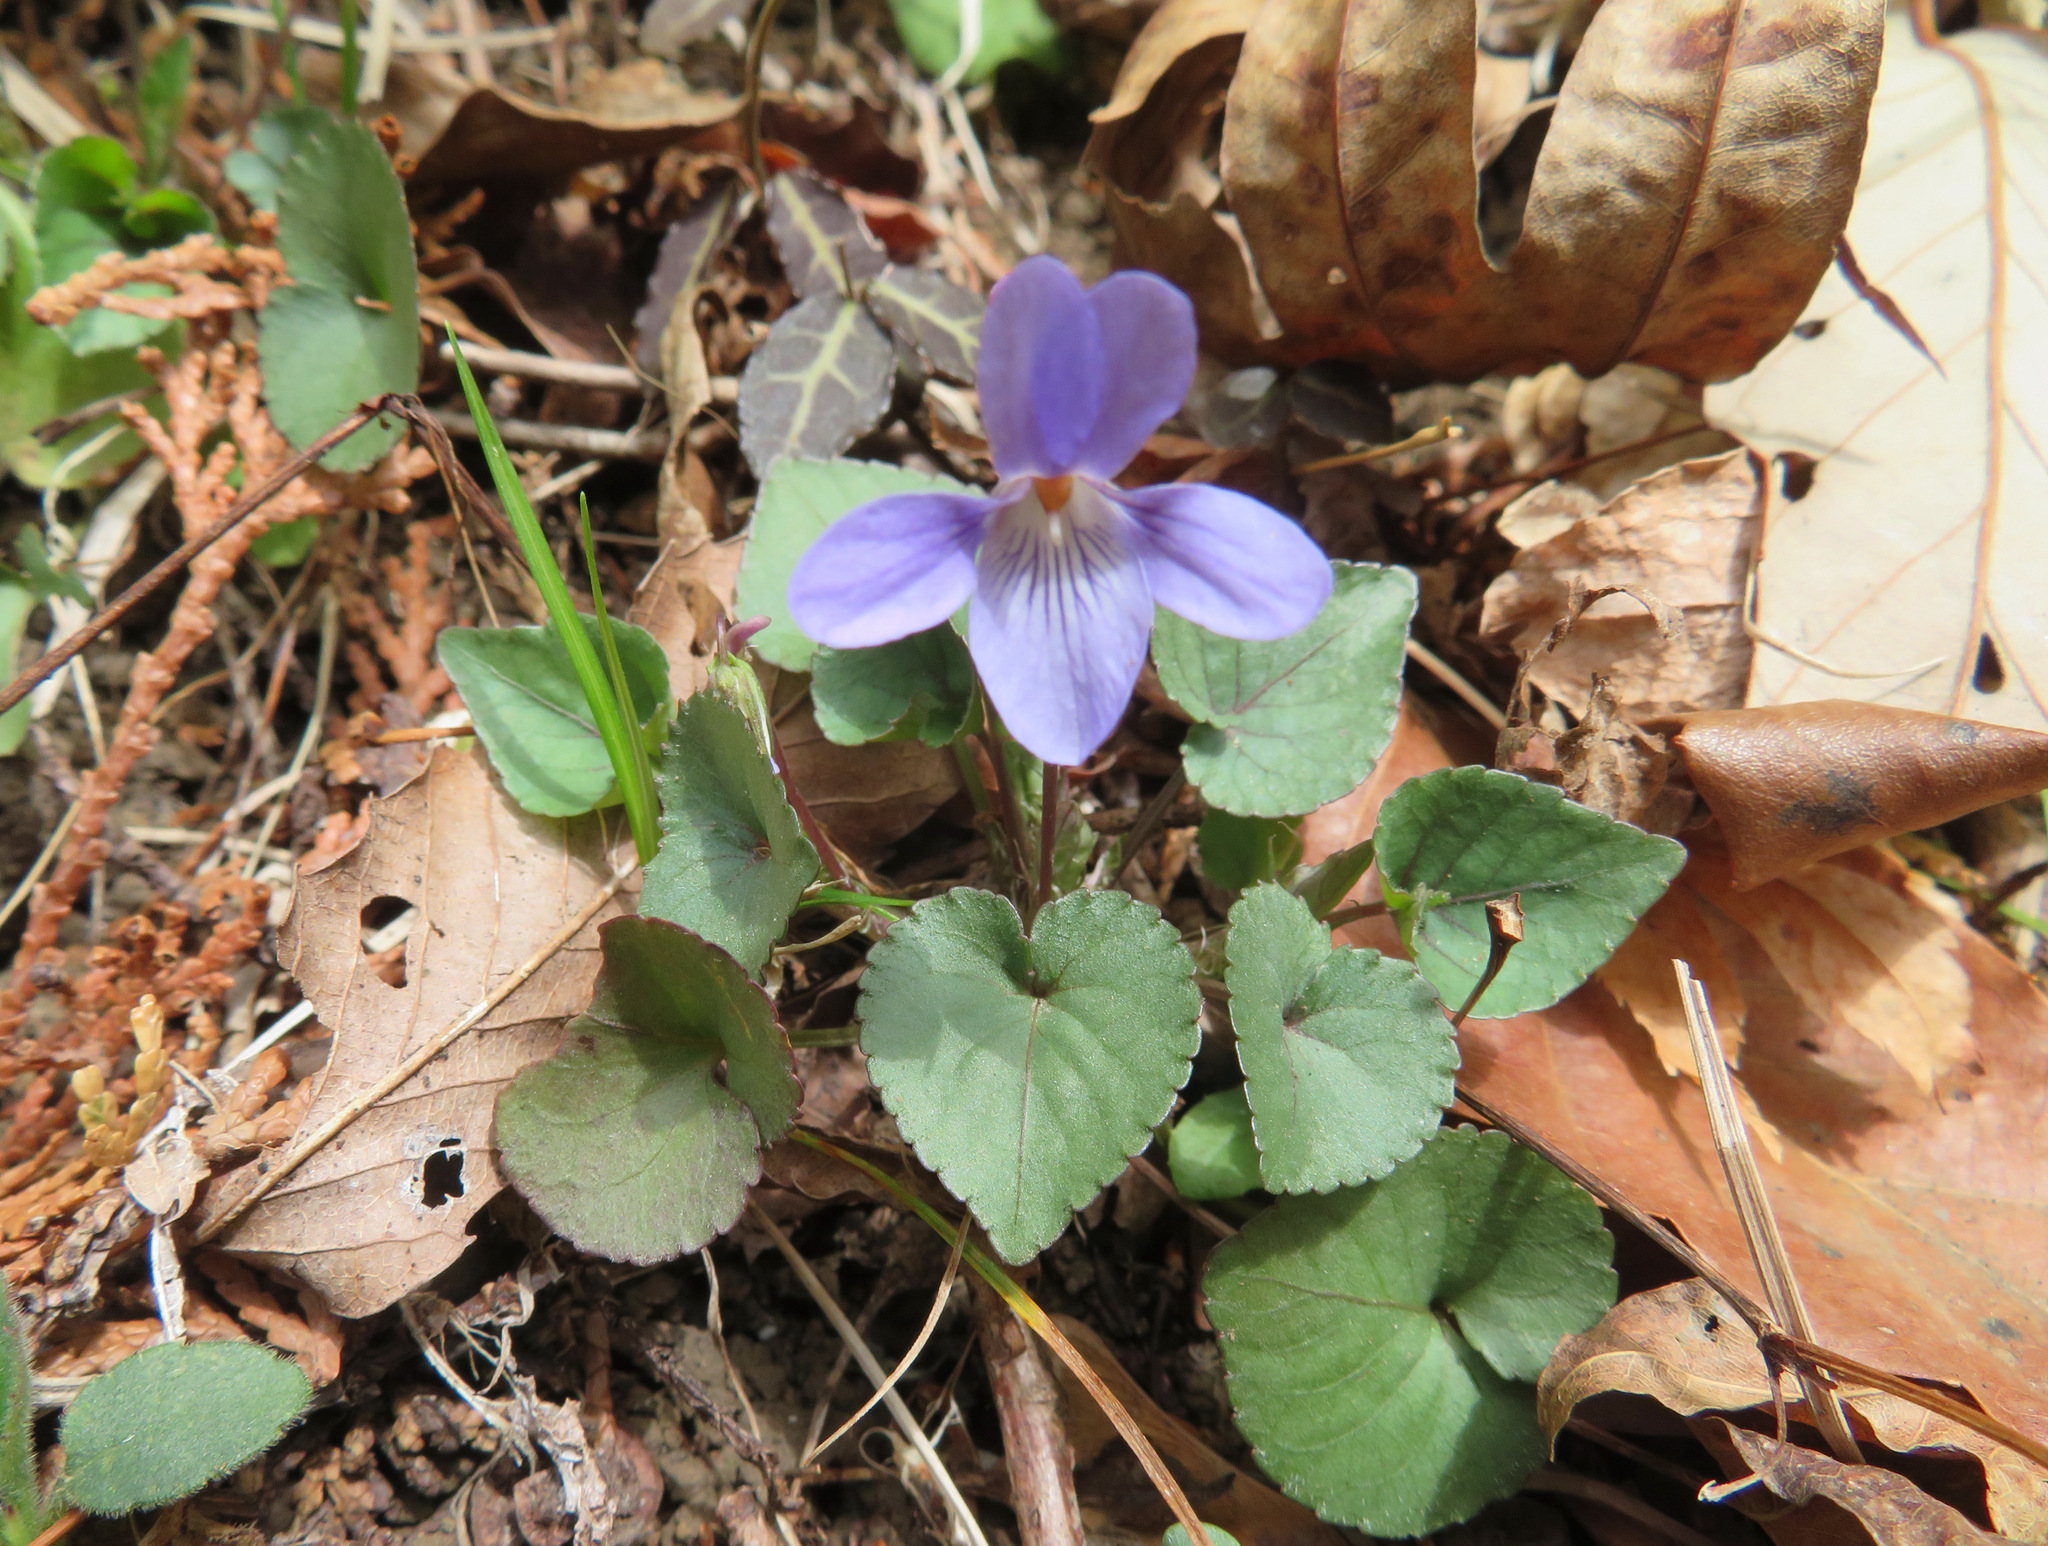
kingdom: Plantae
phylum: Tracheophyta
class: Magnoliopsida
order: Malpighiales
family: Violaceae
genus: Viola
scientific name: Viola grypoceras
